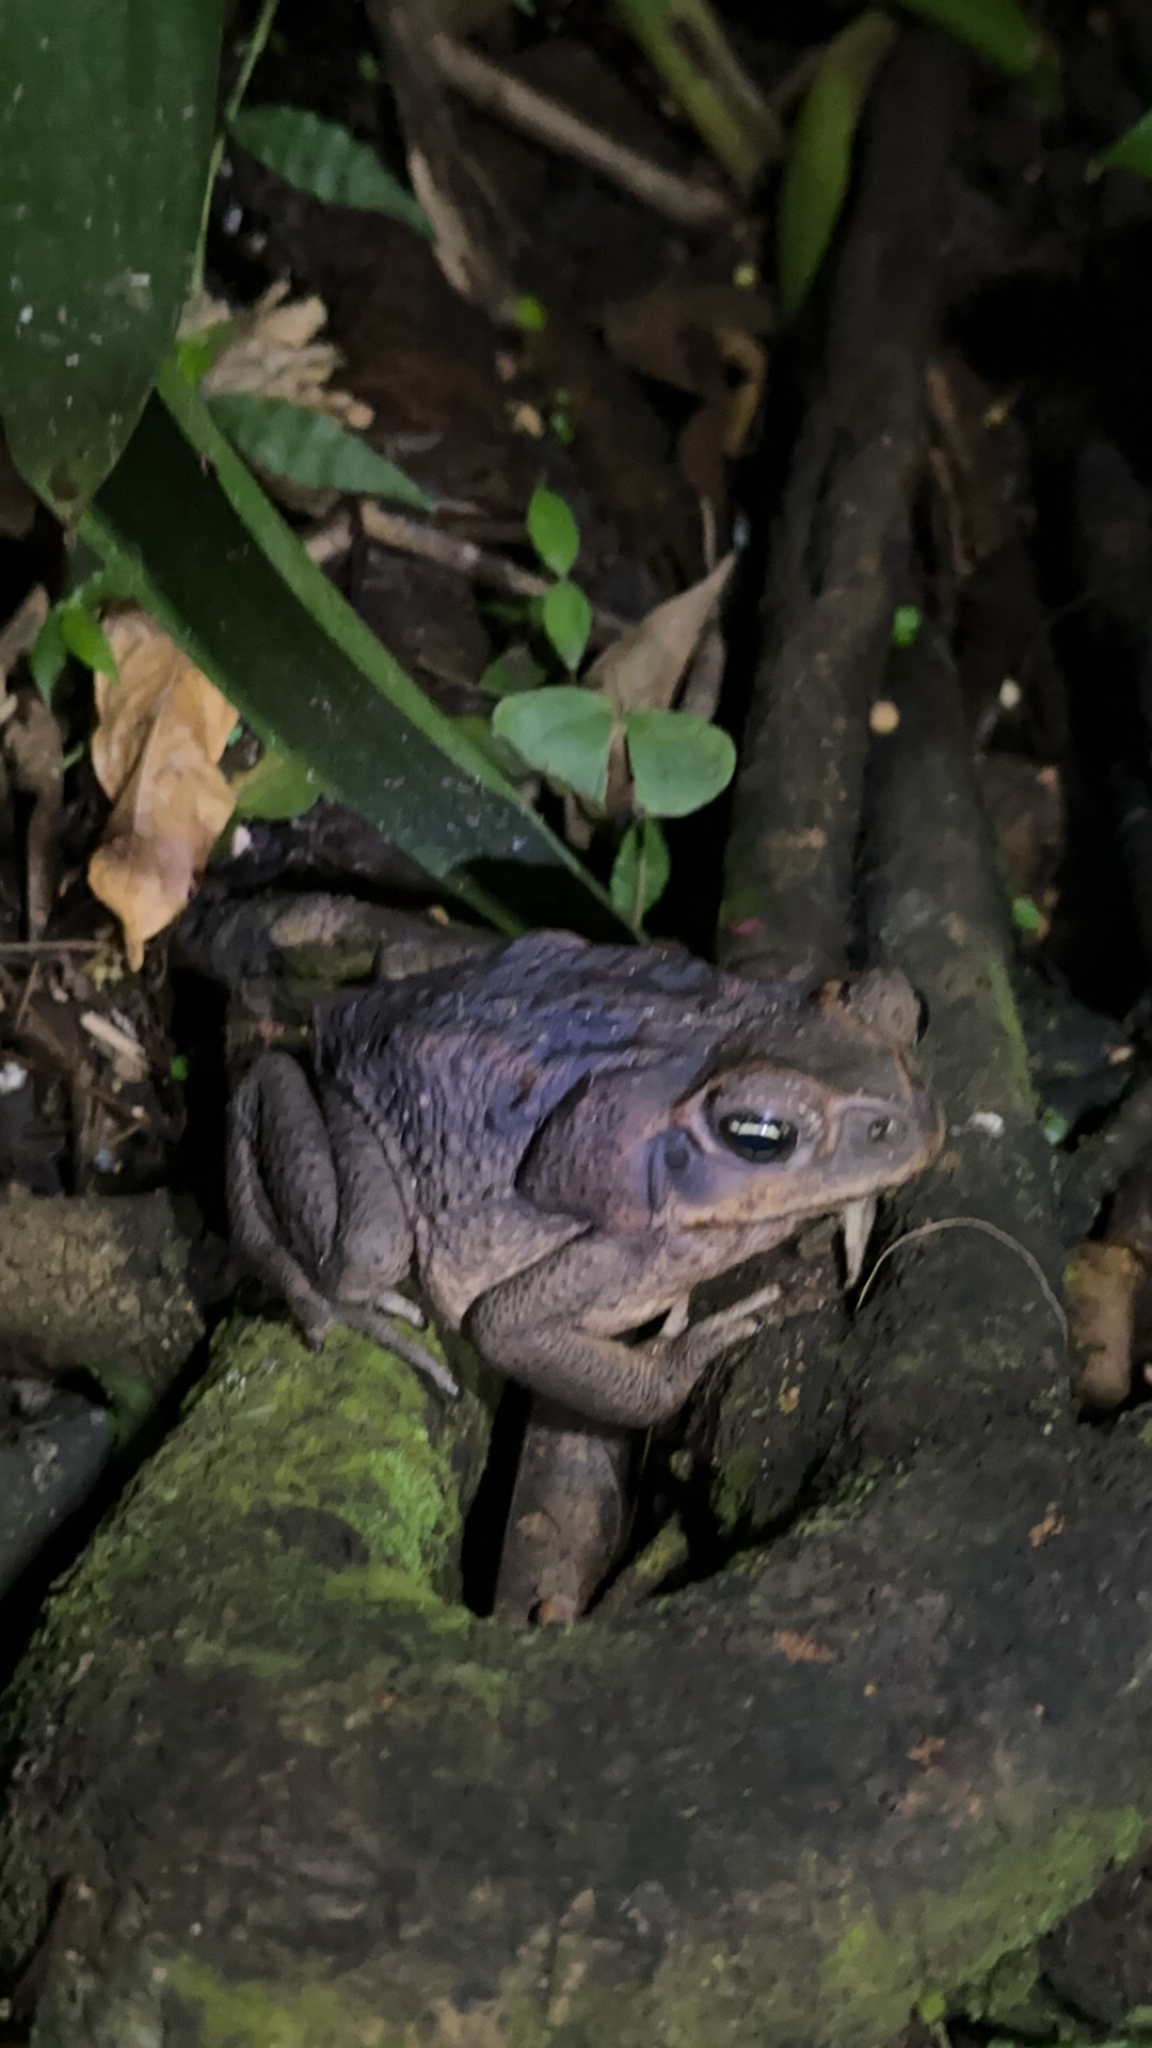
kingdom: Animalia
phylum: Chordata
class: Amphibia
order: Anura
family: Bufonidae
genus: Rhinella
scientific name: Rhinella horribilis
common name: Mesoamerican cane toad
